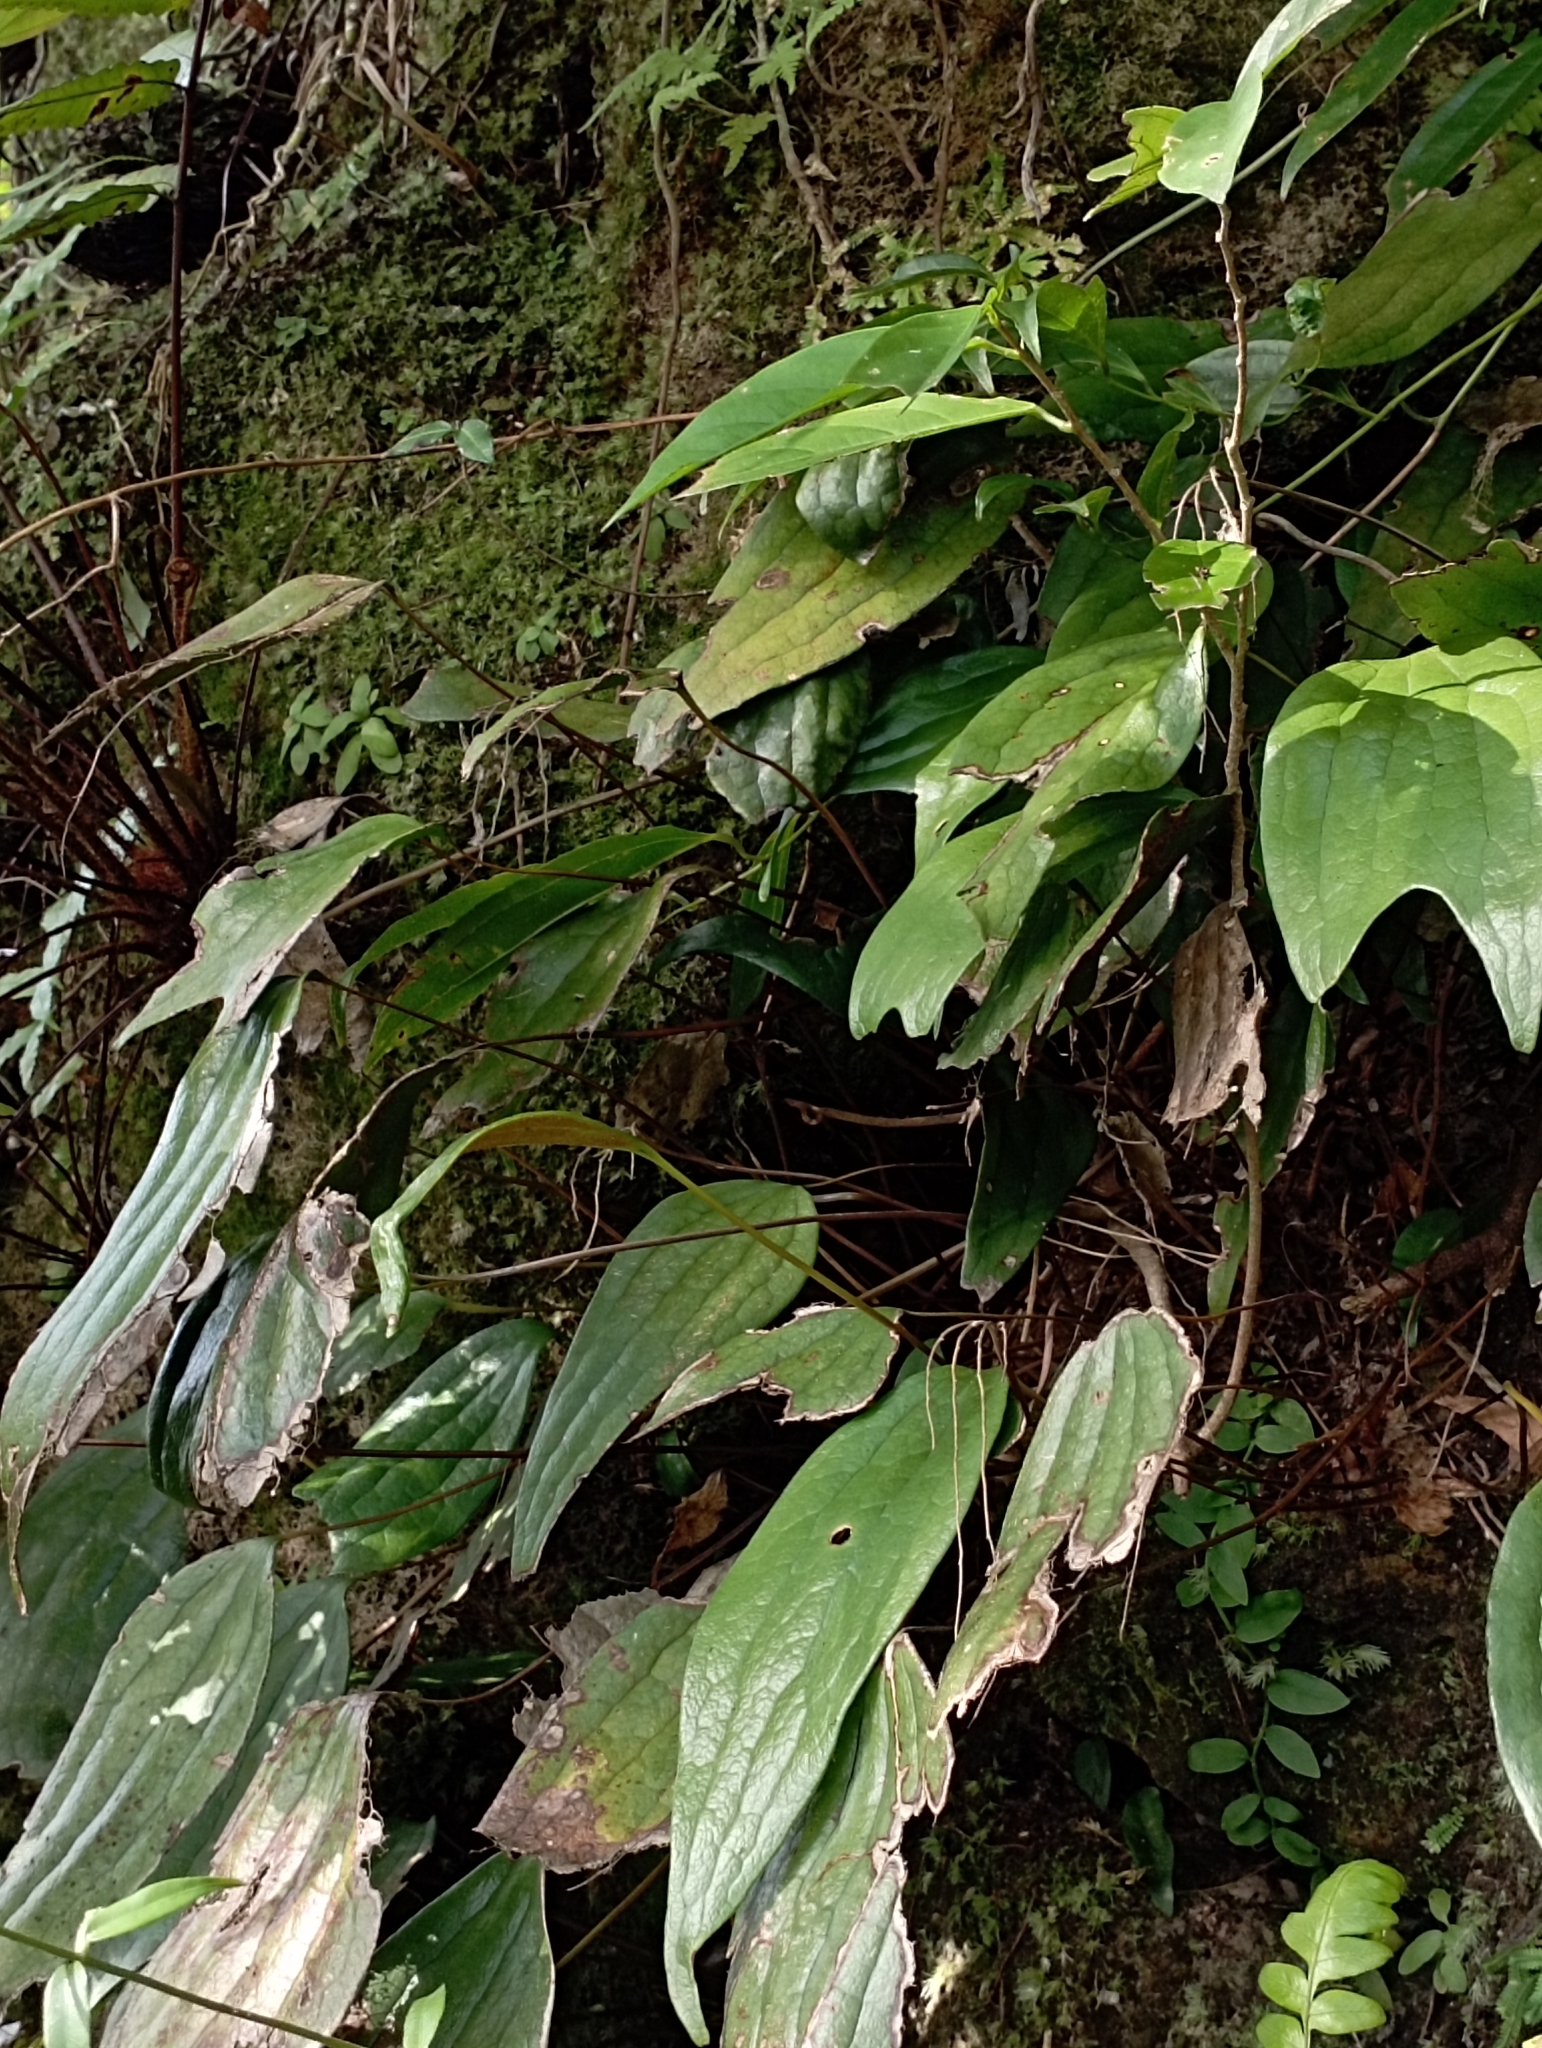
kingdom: Plantae
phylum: Tracheophyta
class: Polypodiopsida
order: Gleicheniales
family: Dipteridaceae
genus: Cheiropleuria
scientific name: Cheiropleuria integrifolia
